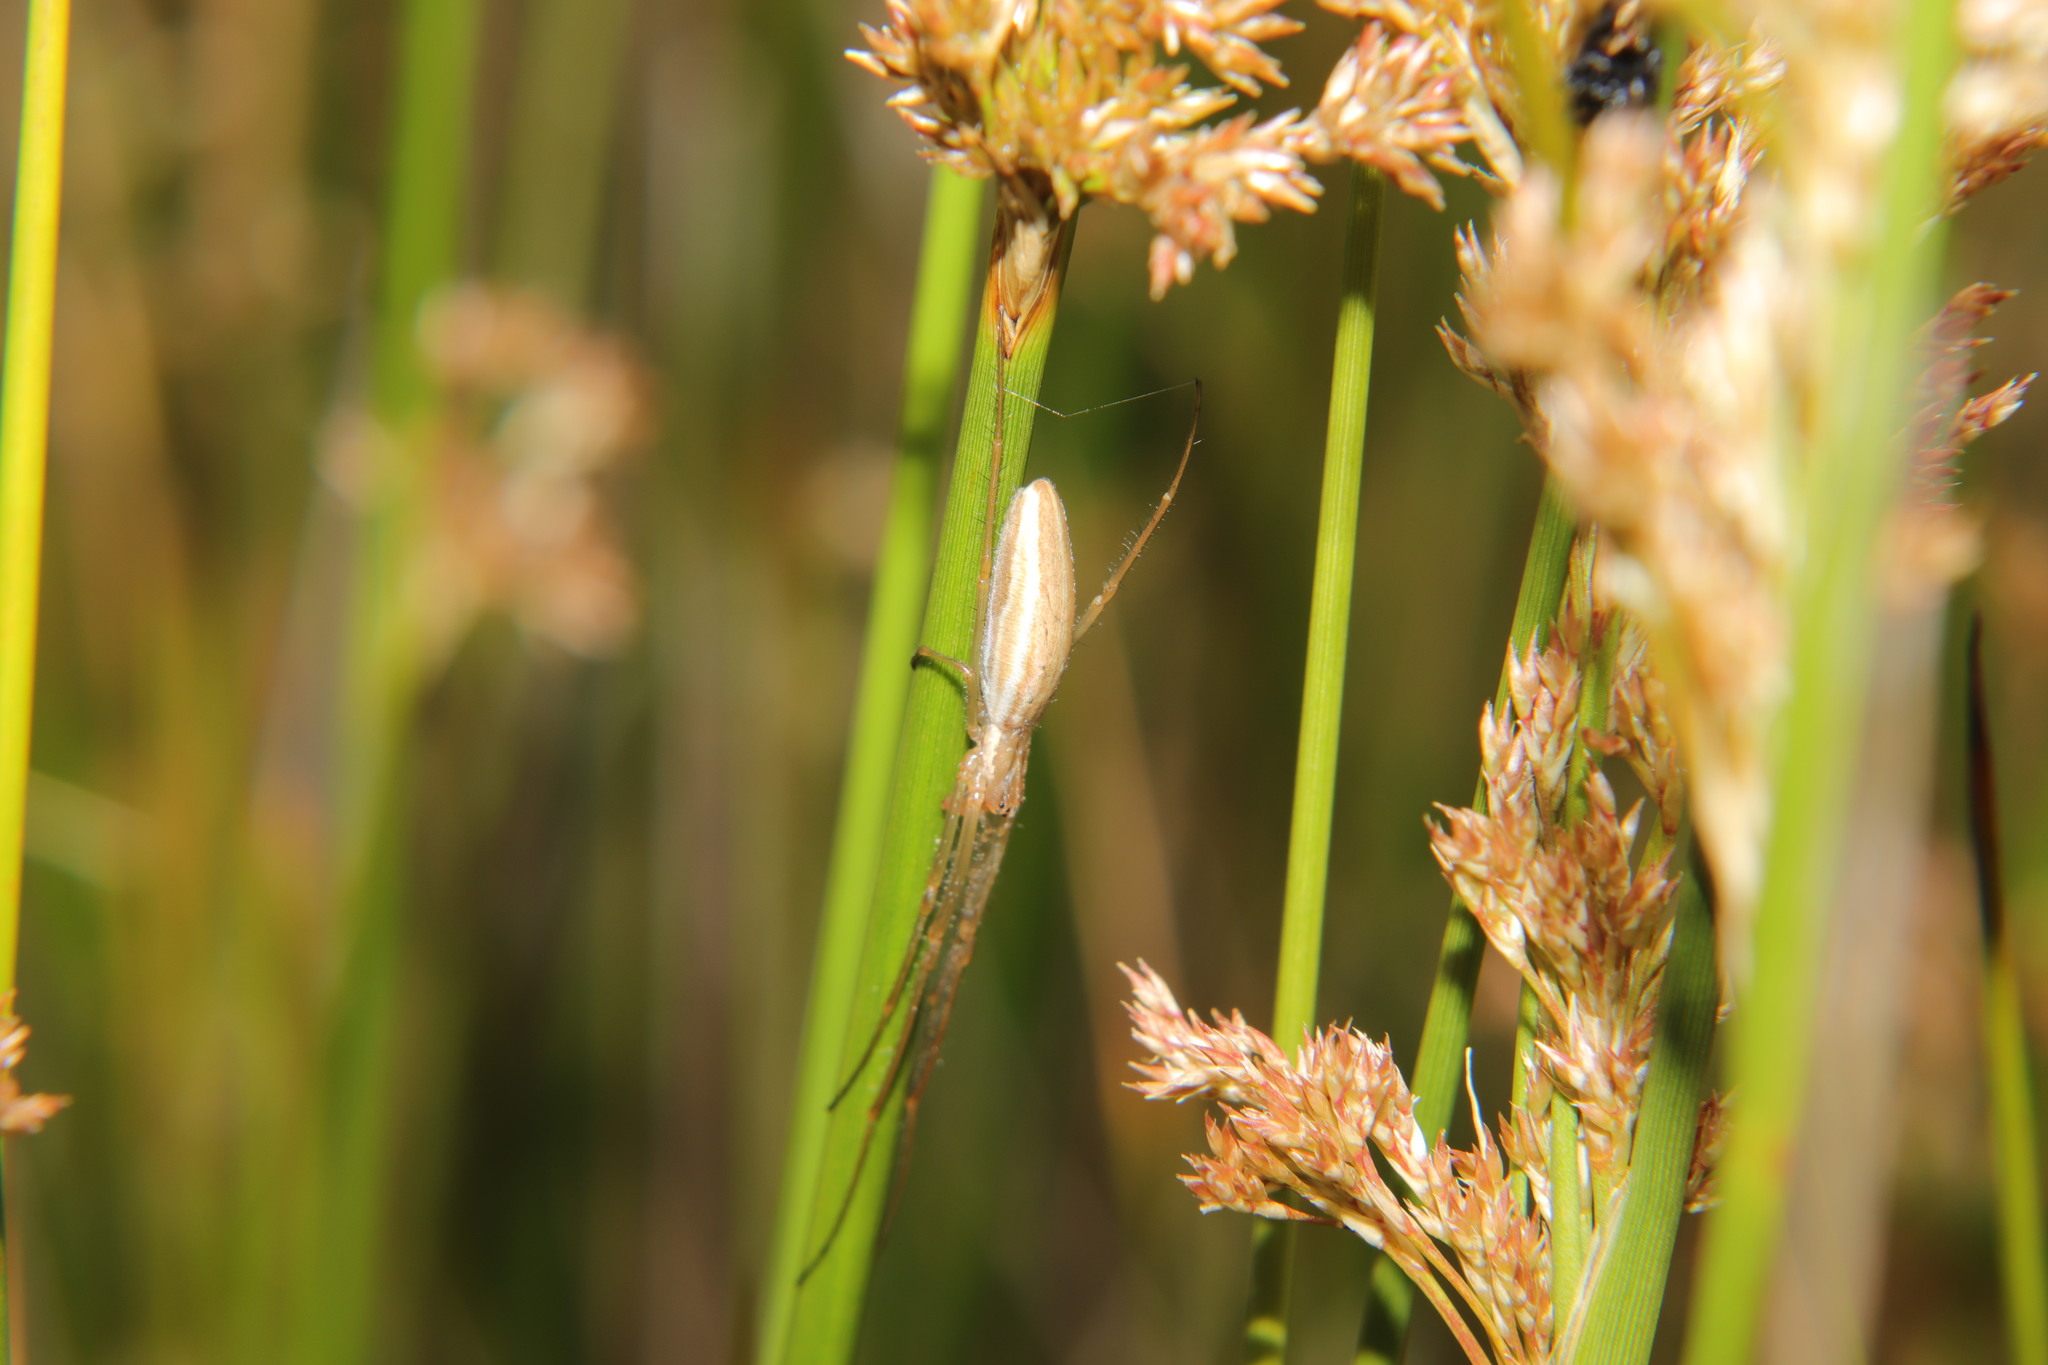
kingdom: Animalia
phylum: Arthropoda
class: Arachnida
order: Araneae
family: Tetragnathidae
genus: Tetragnatha
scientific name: Tetragnatha
